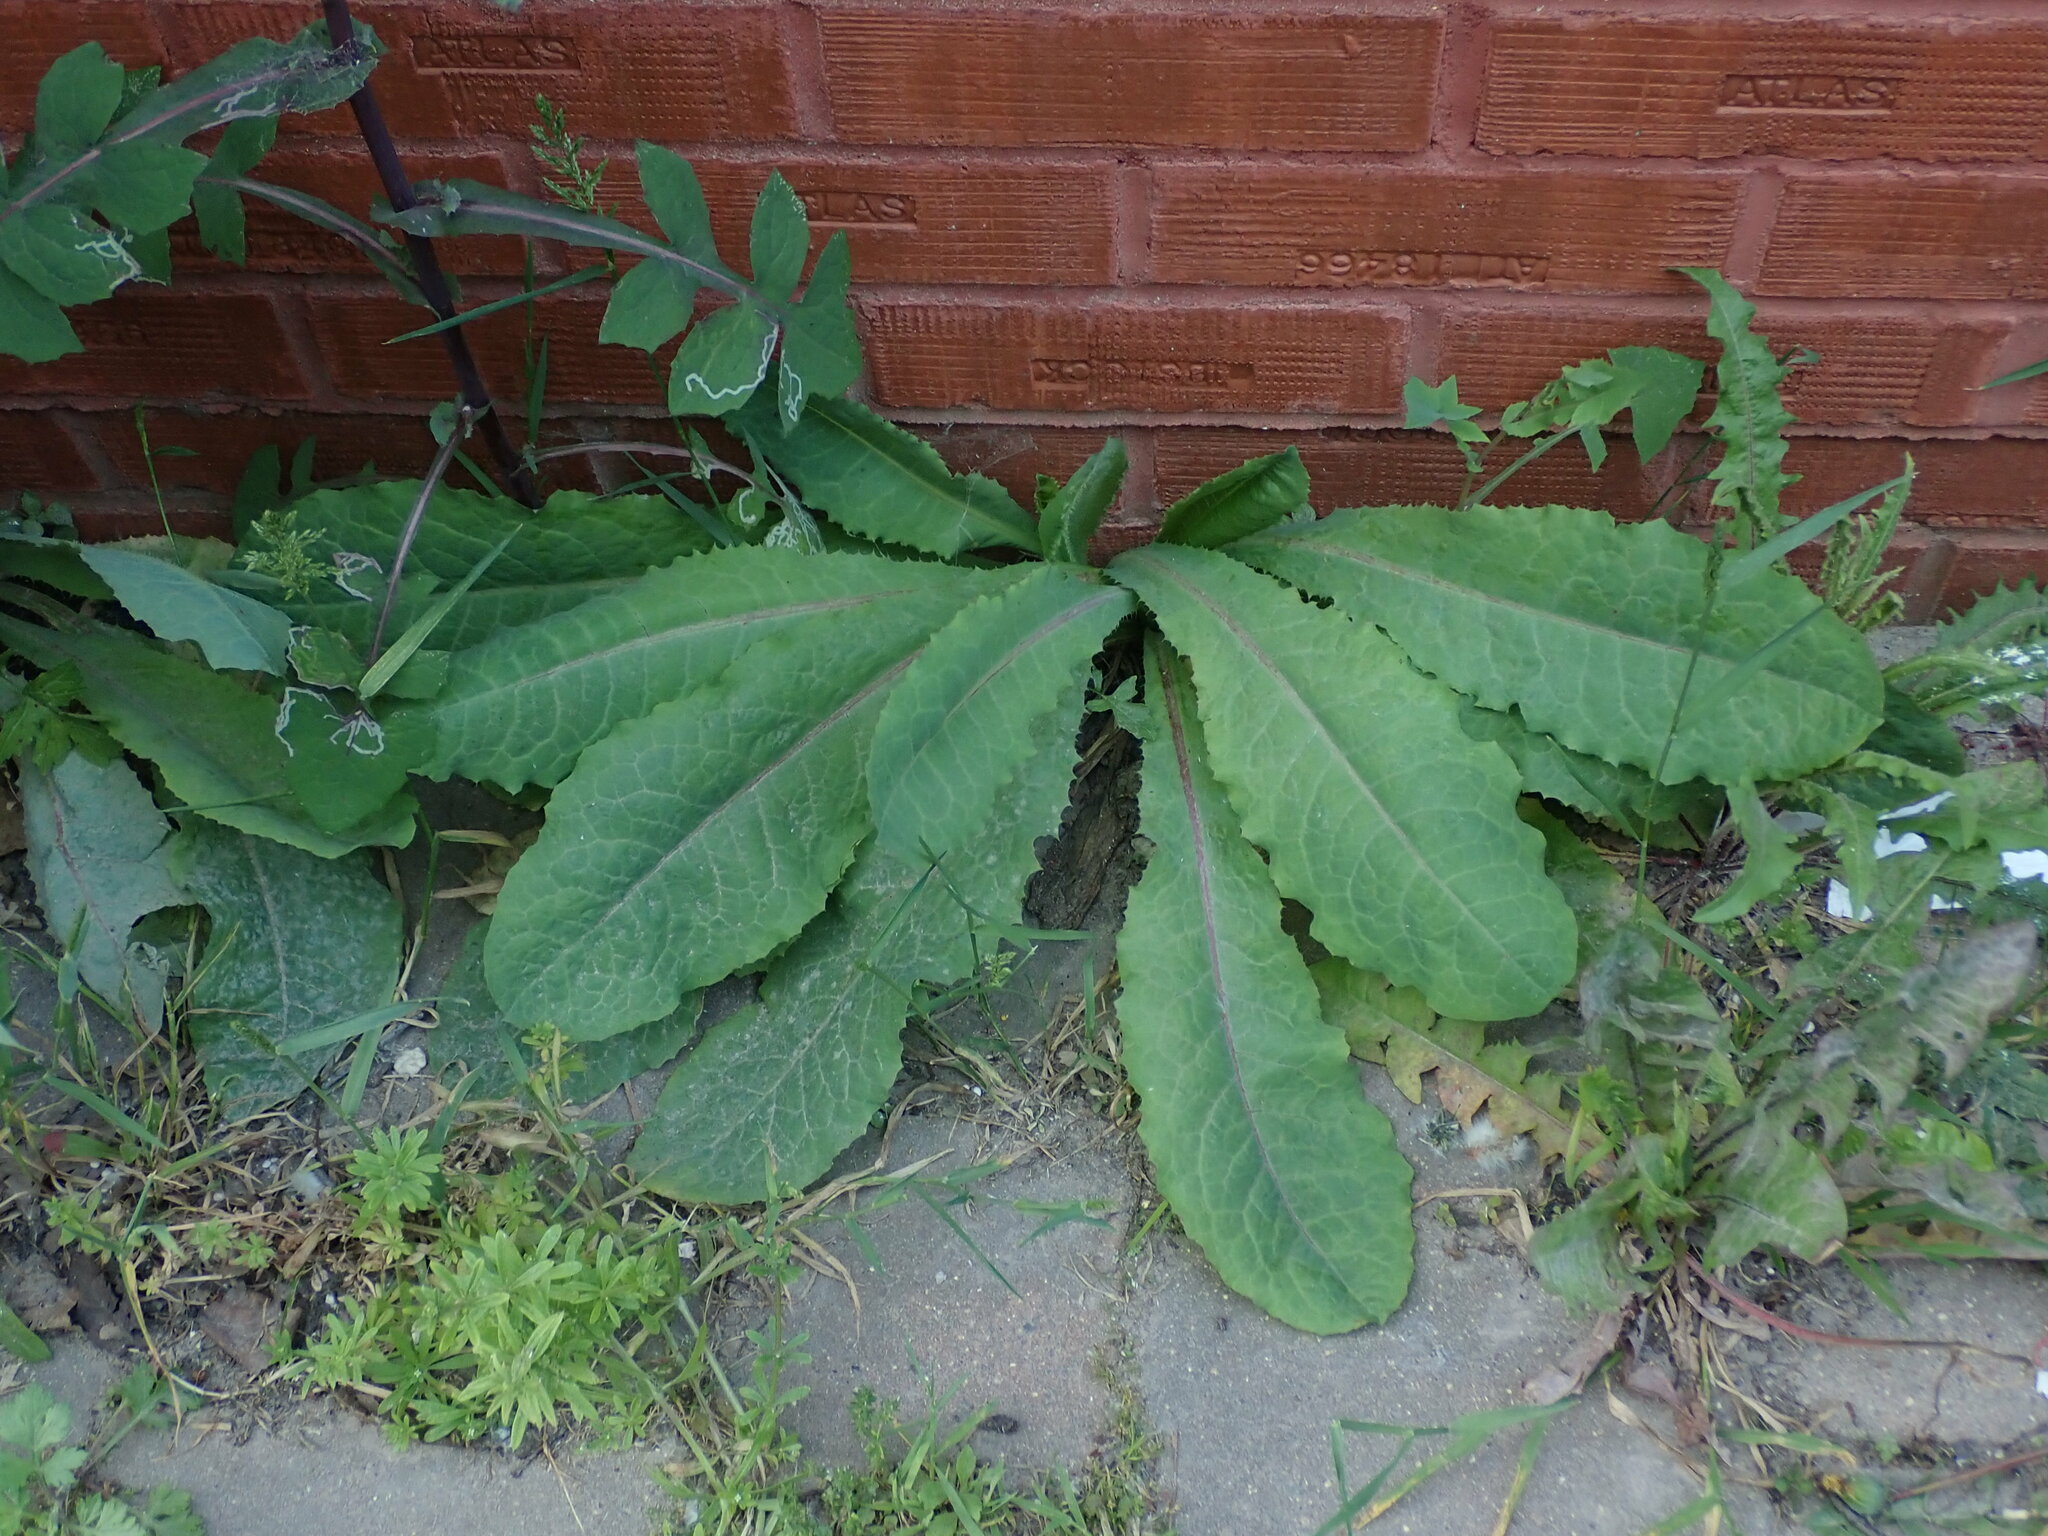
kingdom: Plantae
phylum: Tracheophyta
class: Magnoliopsida
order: Asterales
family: Asteraceae
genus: Lactuca
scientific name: Lactuca virosa
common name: Great lettuce
